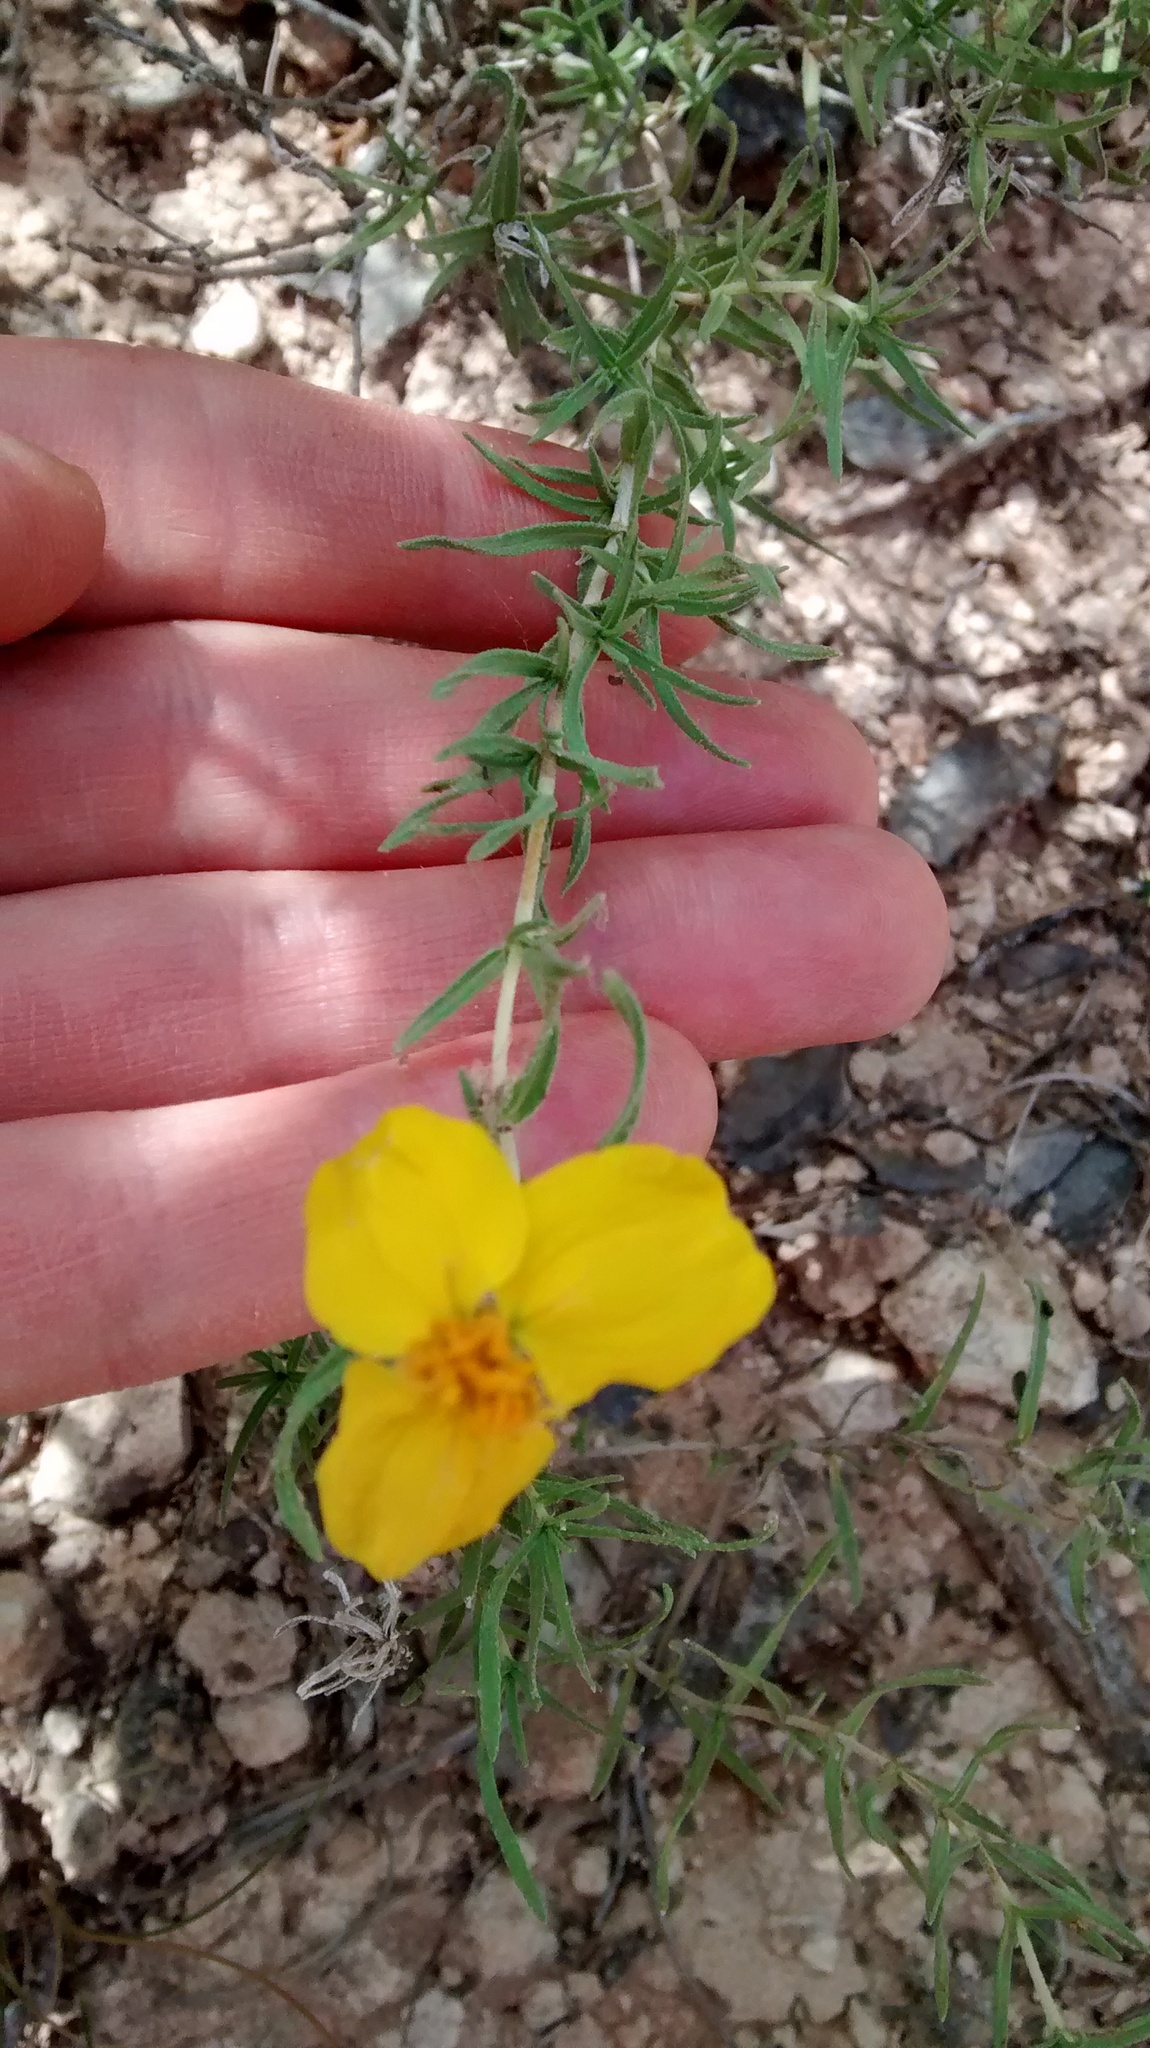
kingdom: Plantae
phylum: Tracheophyta
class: Magnoliopsida
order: Asterales
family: Asteraceae
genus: Zinnia
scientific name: Zinnia grandiflora
